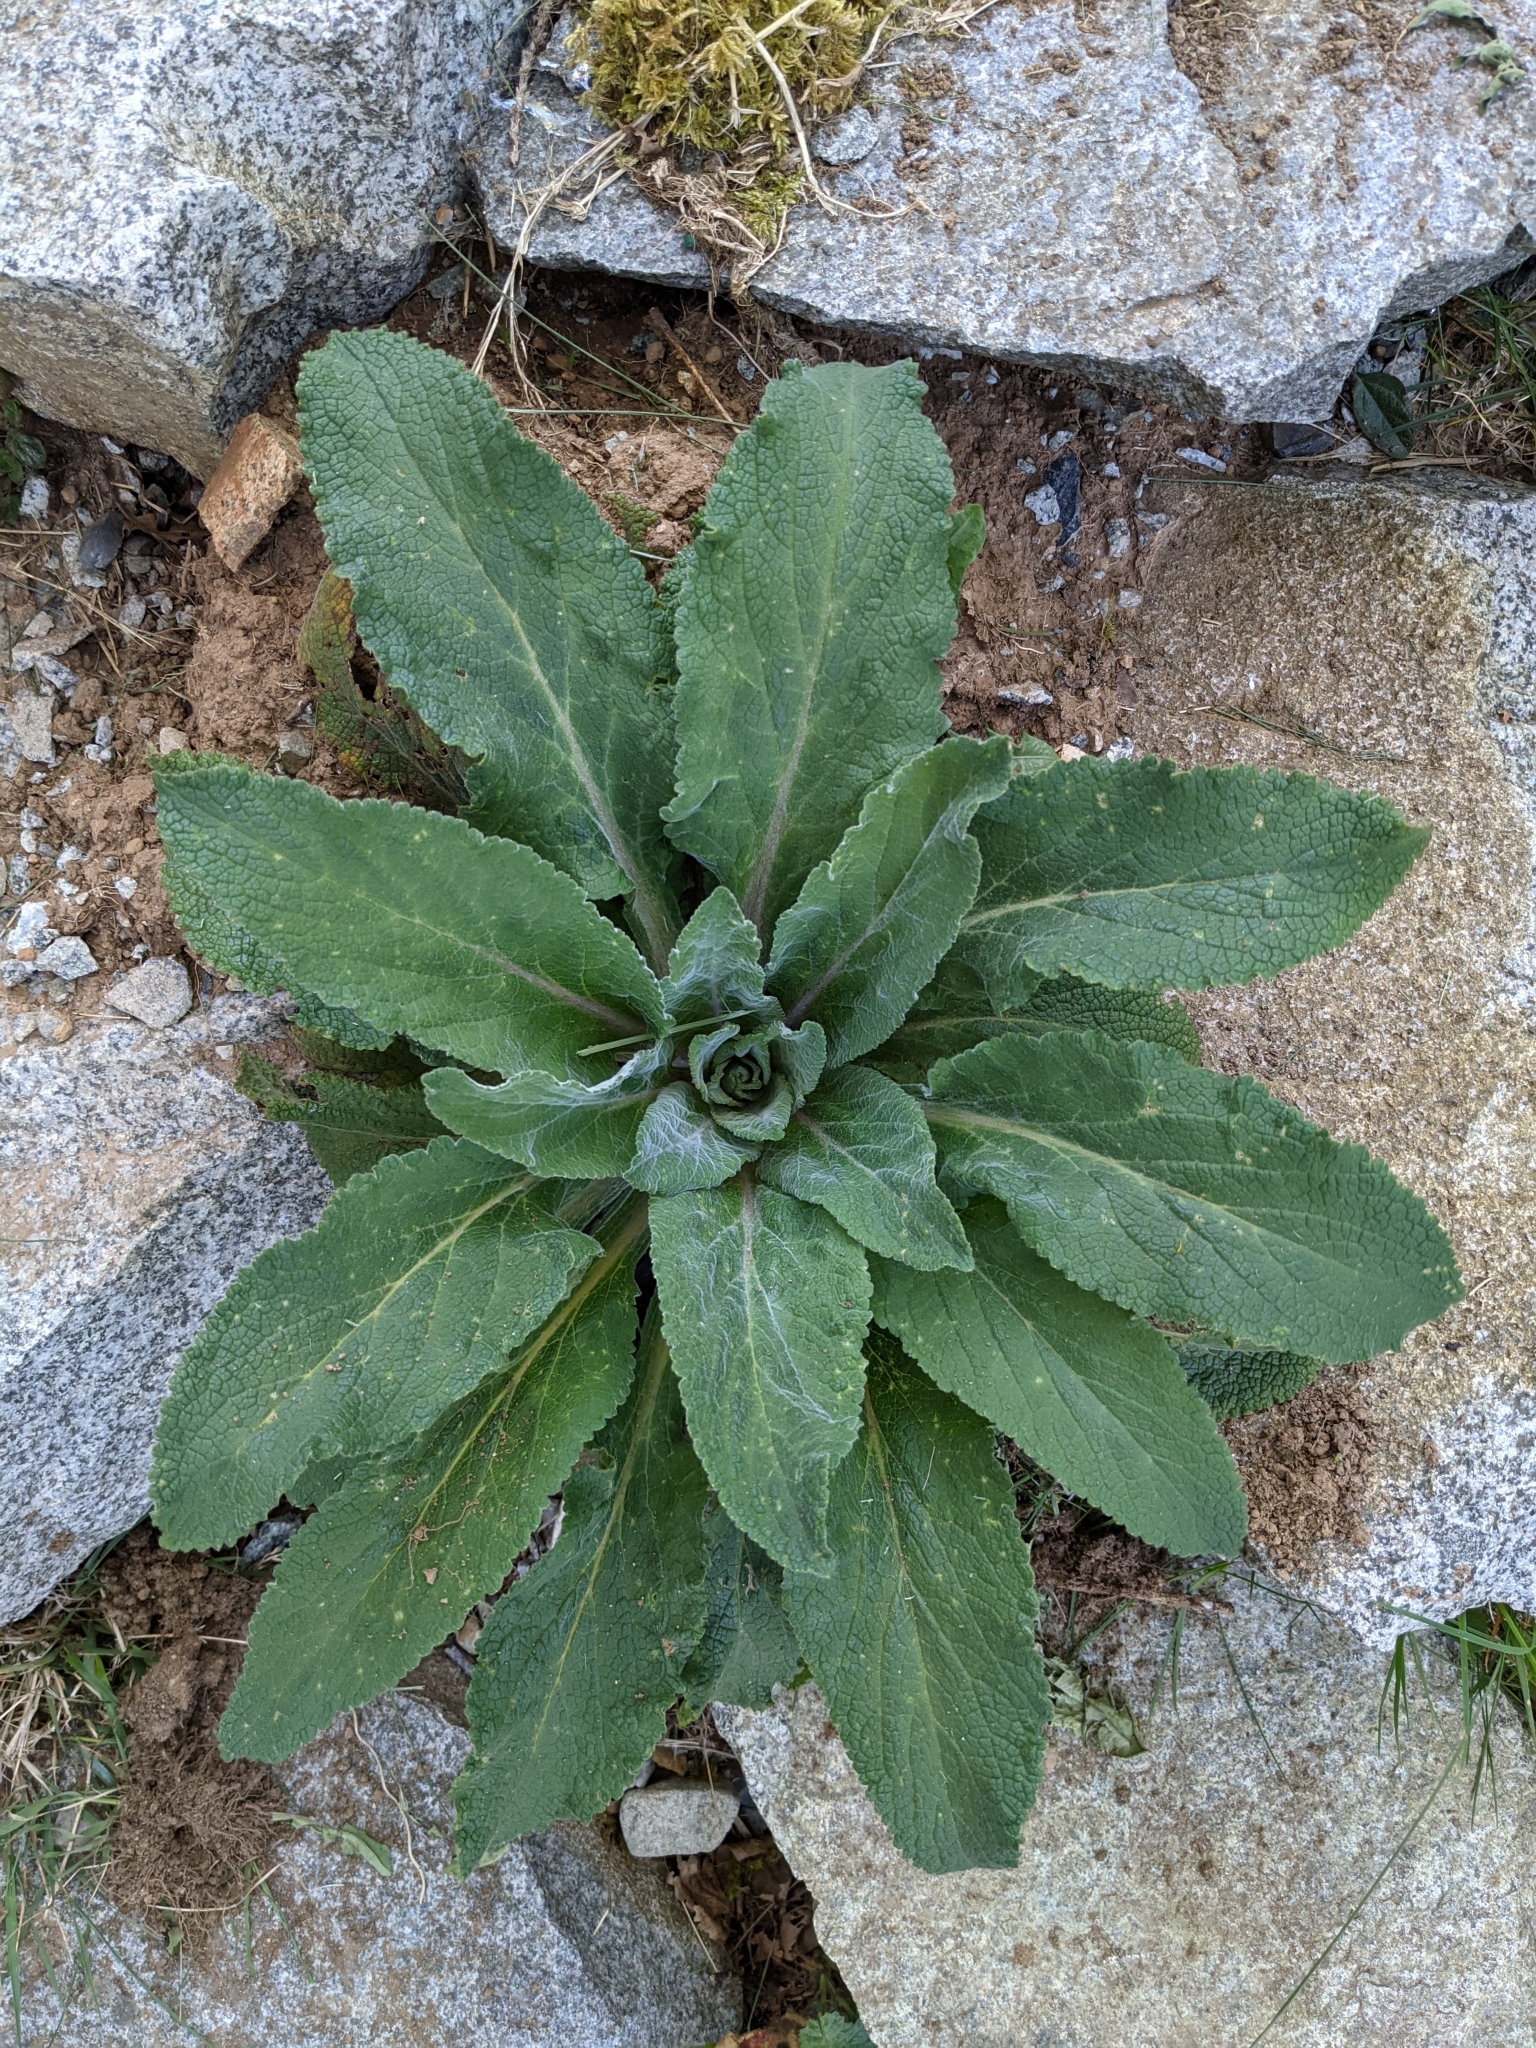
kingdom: Plantae
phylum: Tracheophyta
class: Magnoliopsida
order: Lamiales
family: Scrophulariaceae
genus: Verbascum
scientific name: Verbascum thapsus
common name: Common mullein
